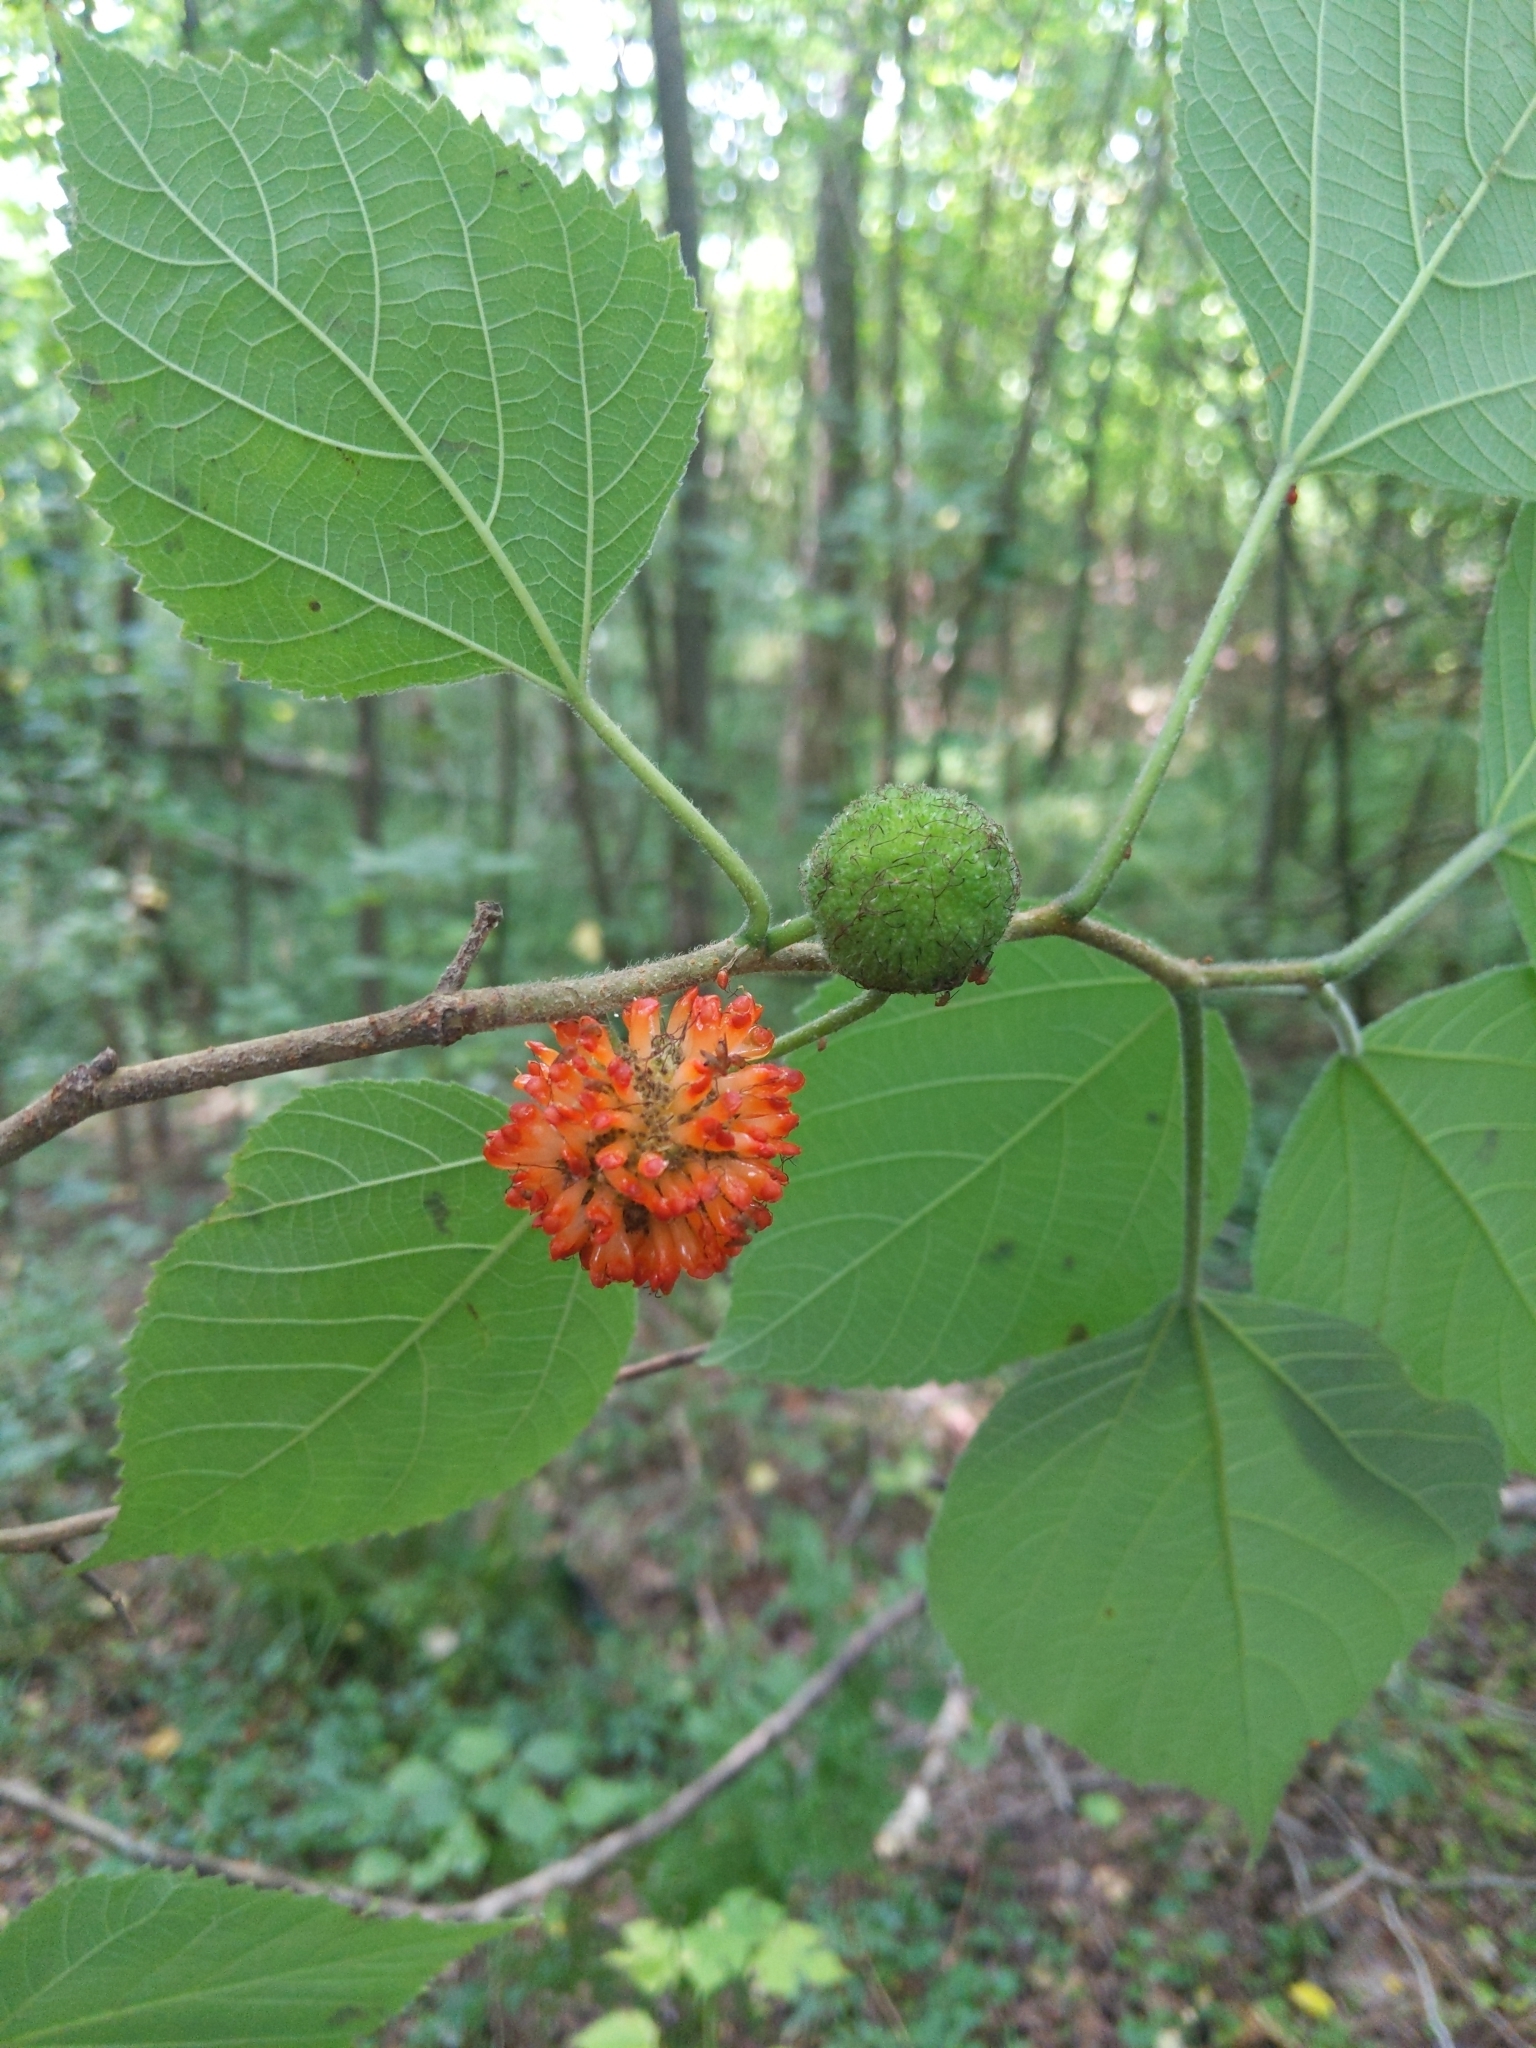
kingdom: Plantae
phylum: Tracheophyta
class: Magnoliopsida
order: Rosales
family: Moraceae
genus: Broussonetia
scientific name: Broussonetia papyrifera
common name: Paper mulberry
